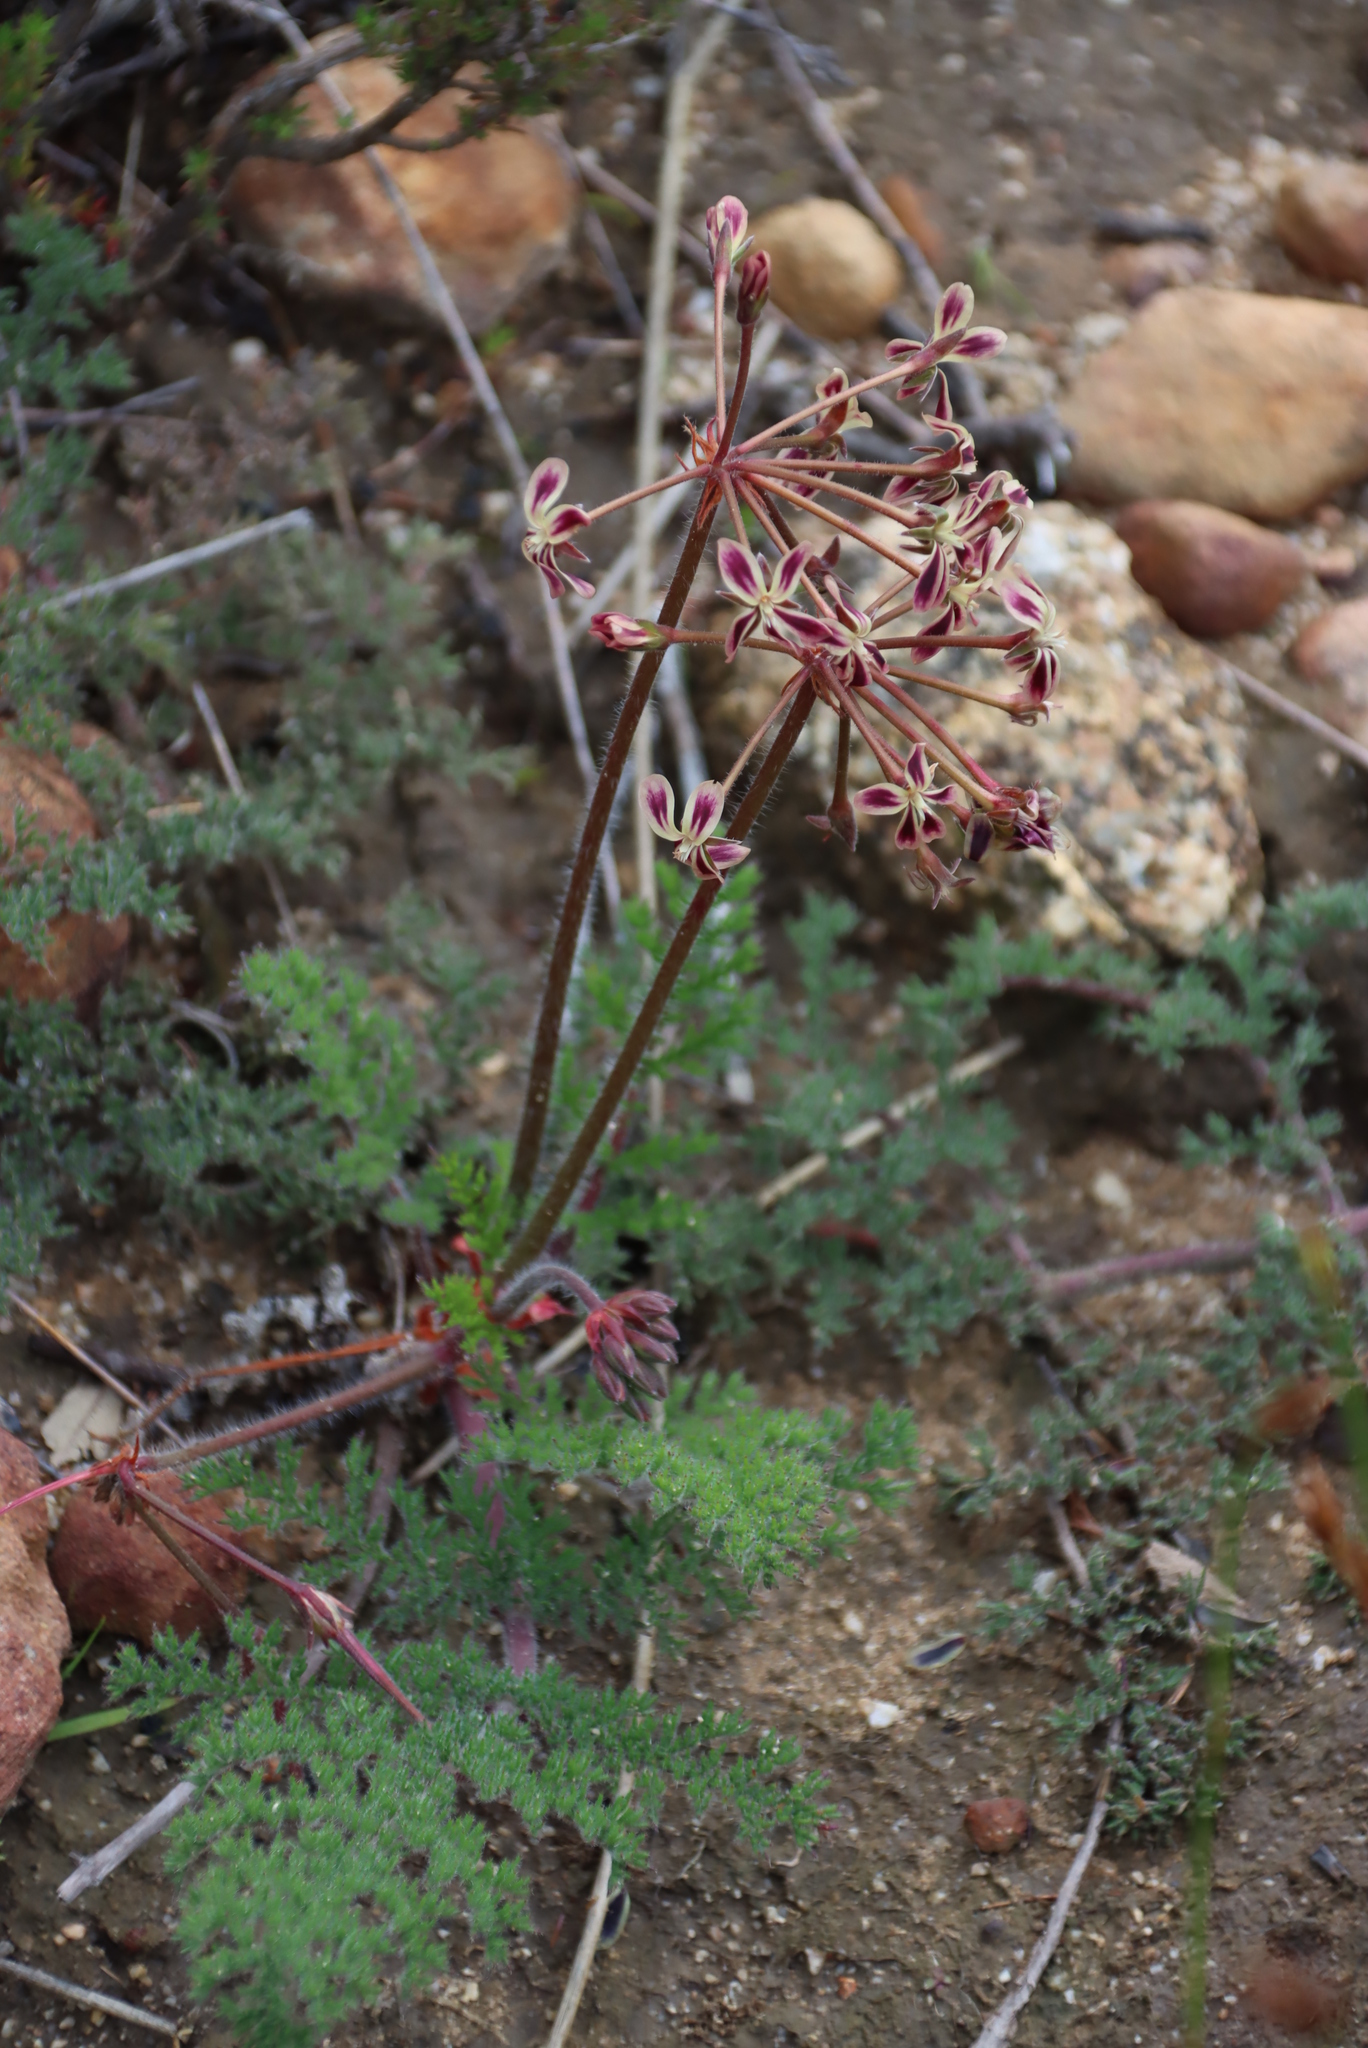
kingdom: Plantae
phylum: Tracheophyta
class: Magnoliopsida
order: Geraniales
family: Geraniaceae
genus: Pelargonium
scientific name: Pelargonium triste
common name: Night-scent pelargonium
